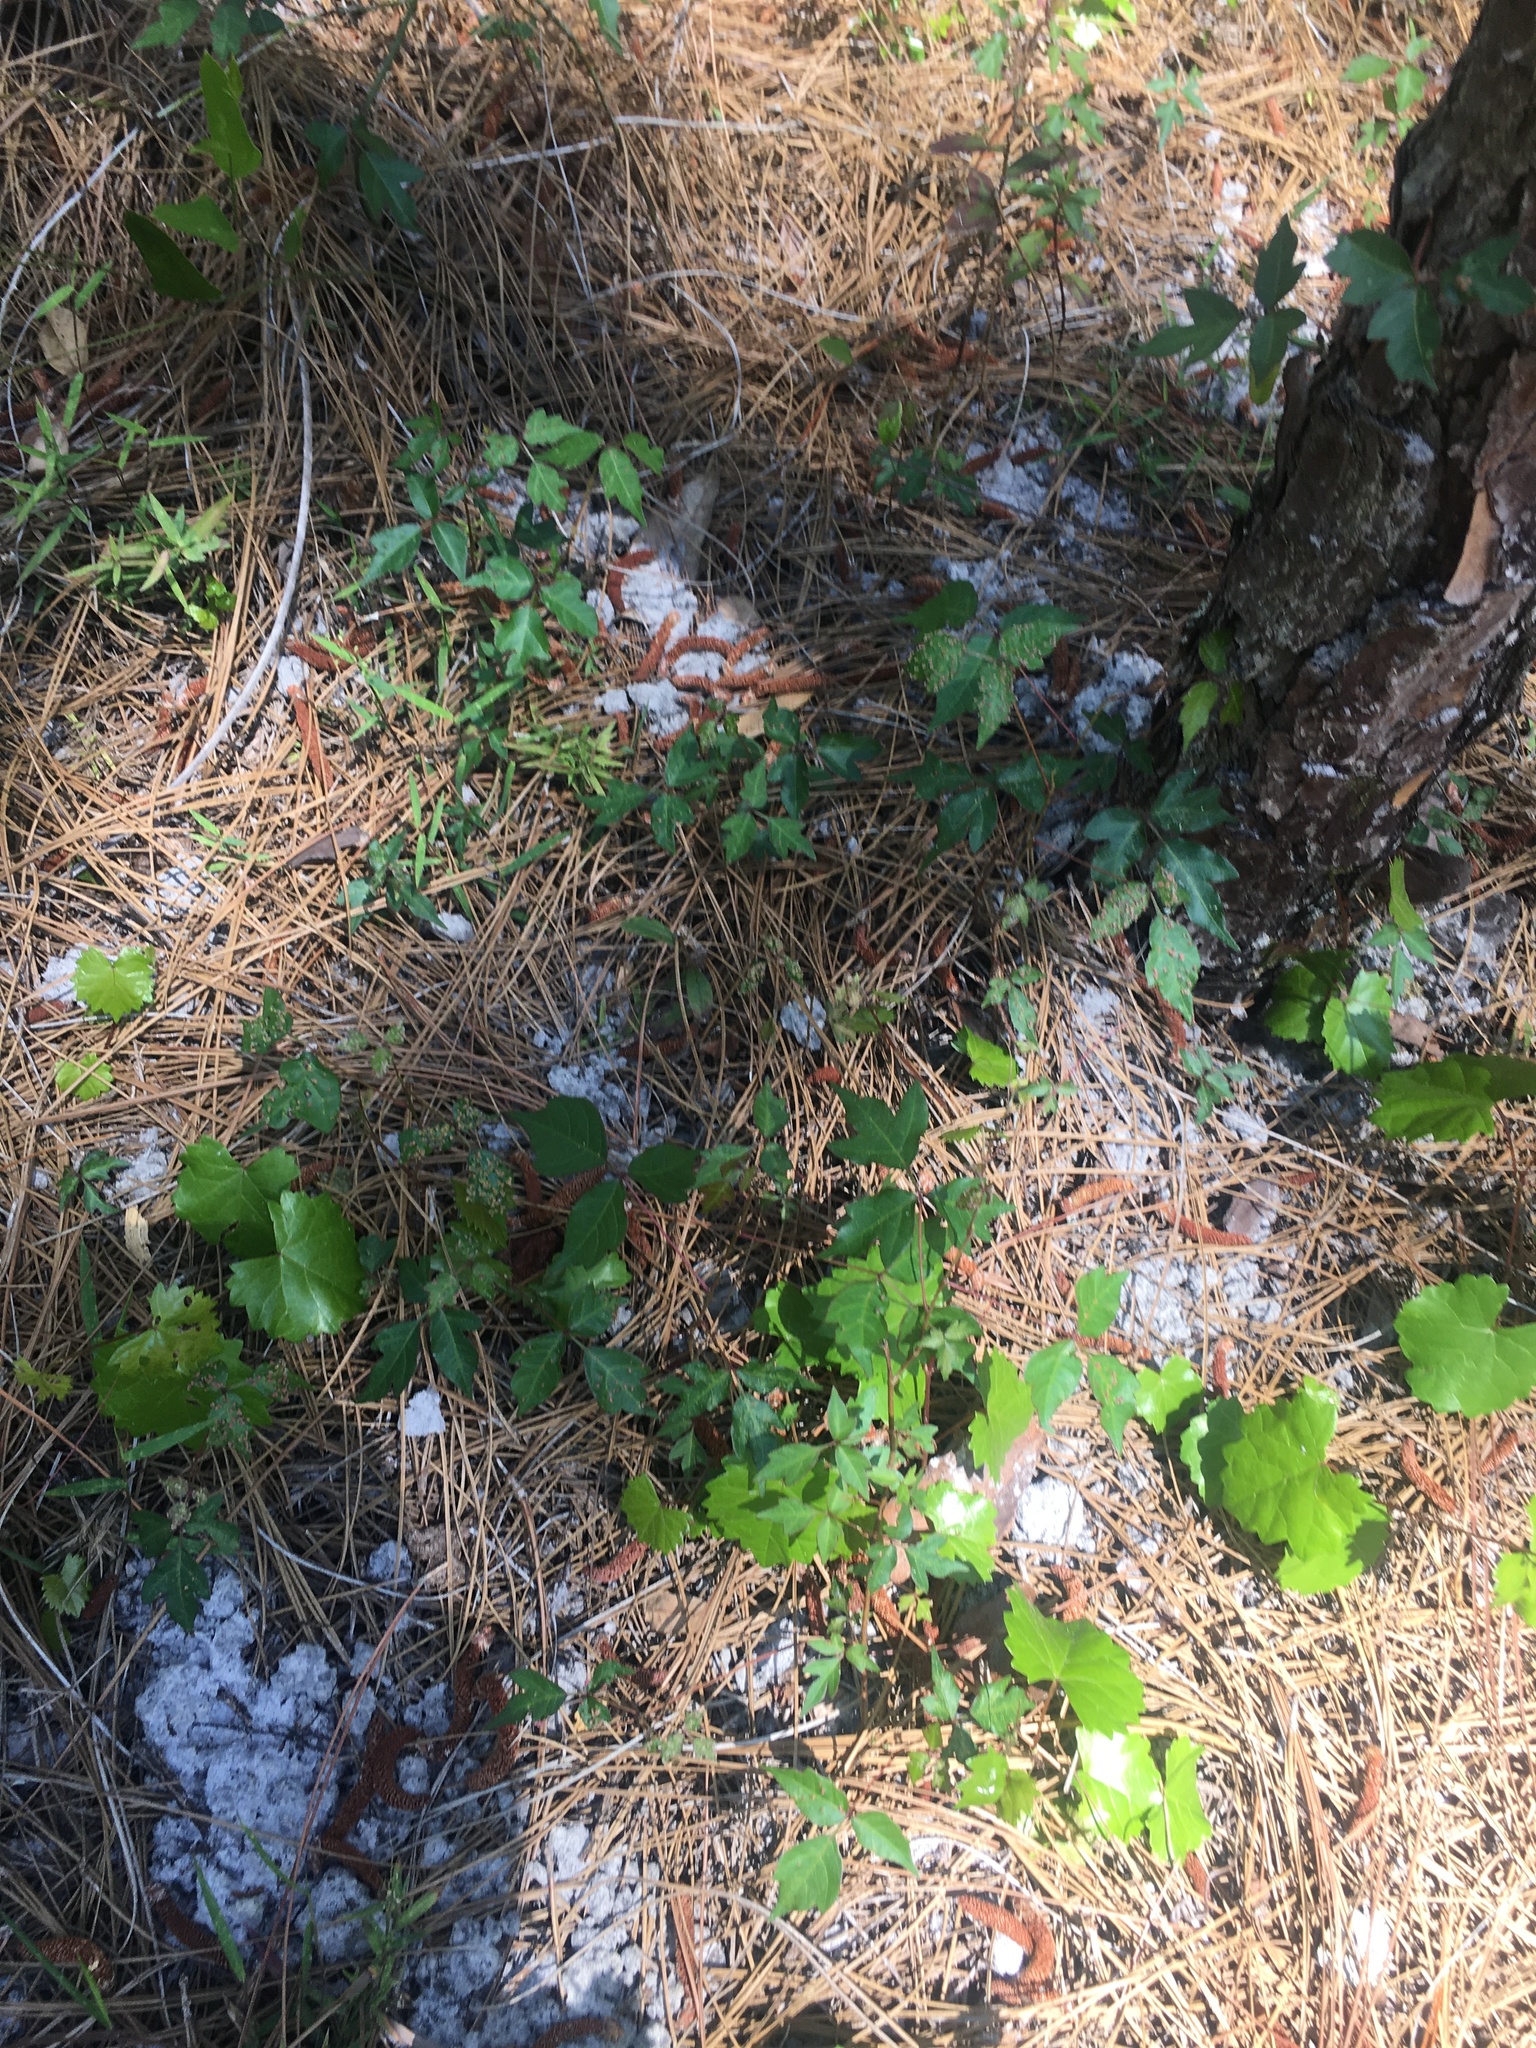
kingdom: Plantae
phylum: Tracheophyta
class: Magnoliopsida
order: Sapindales
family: Anacardiaceae
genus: Toxicodendron
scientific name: Toxicodendron radicans
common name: Poison ivy
